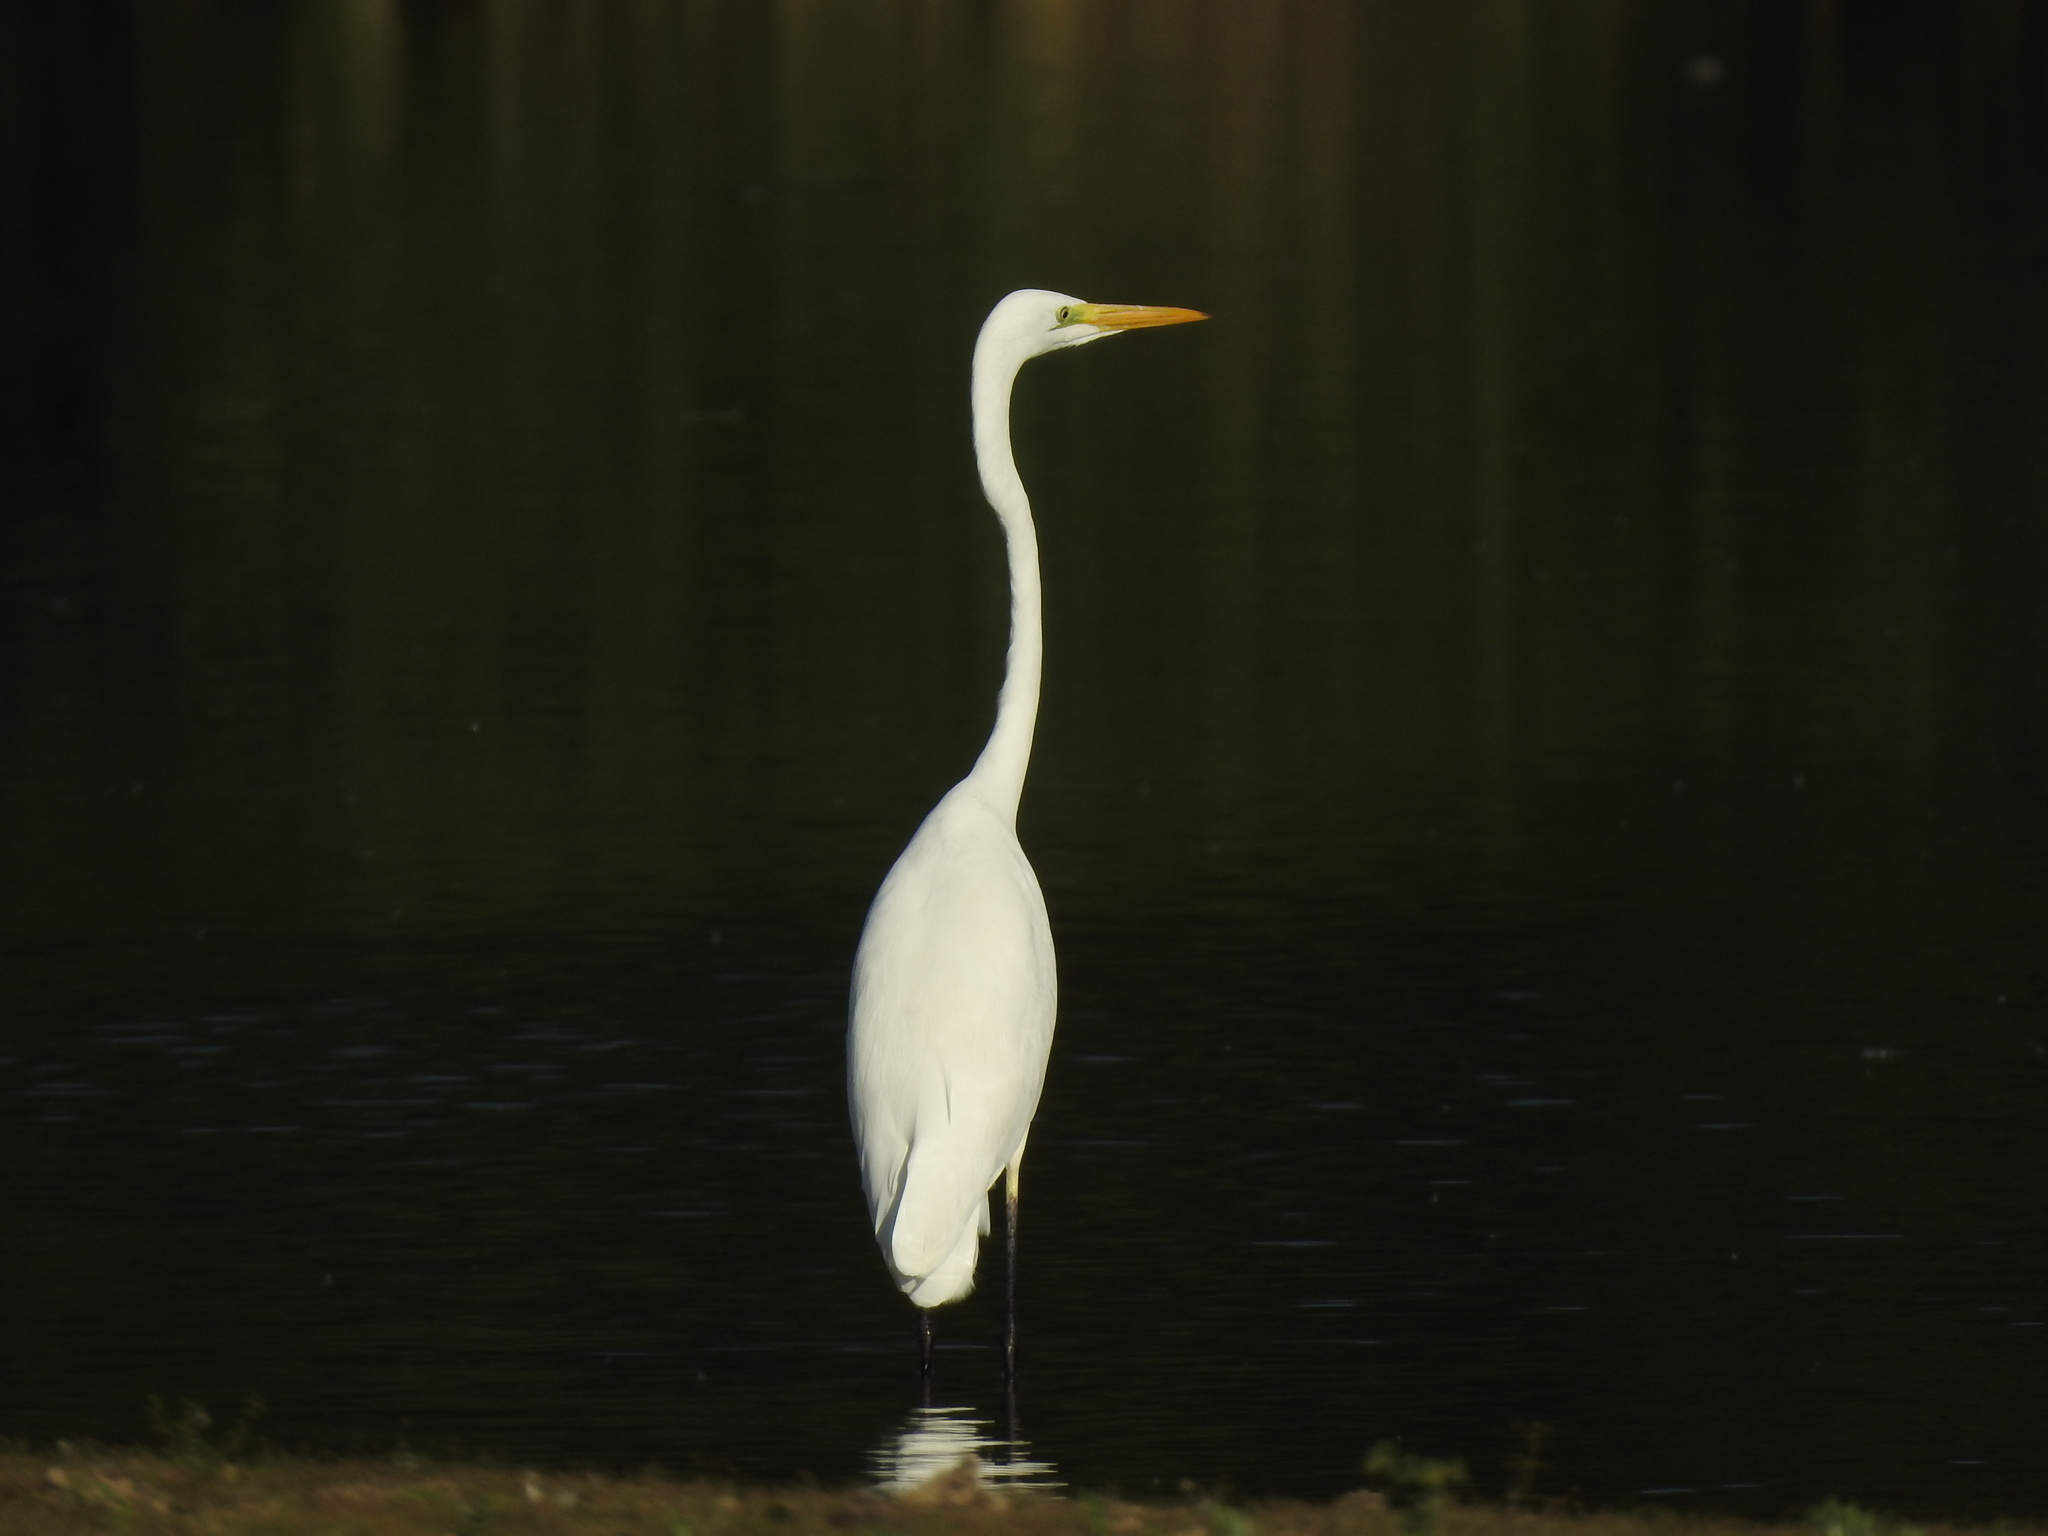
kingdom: Animalia
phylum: Chordata
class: Aves
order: Pelecaniformes
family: Ardeidae
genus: Ardea
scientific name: Ardea alba
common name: Great egret
